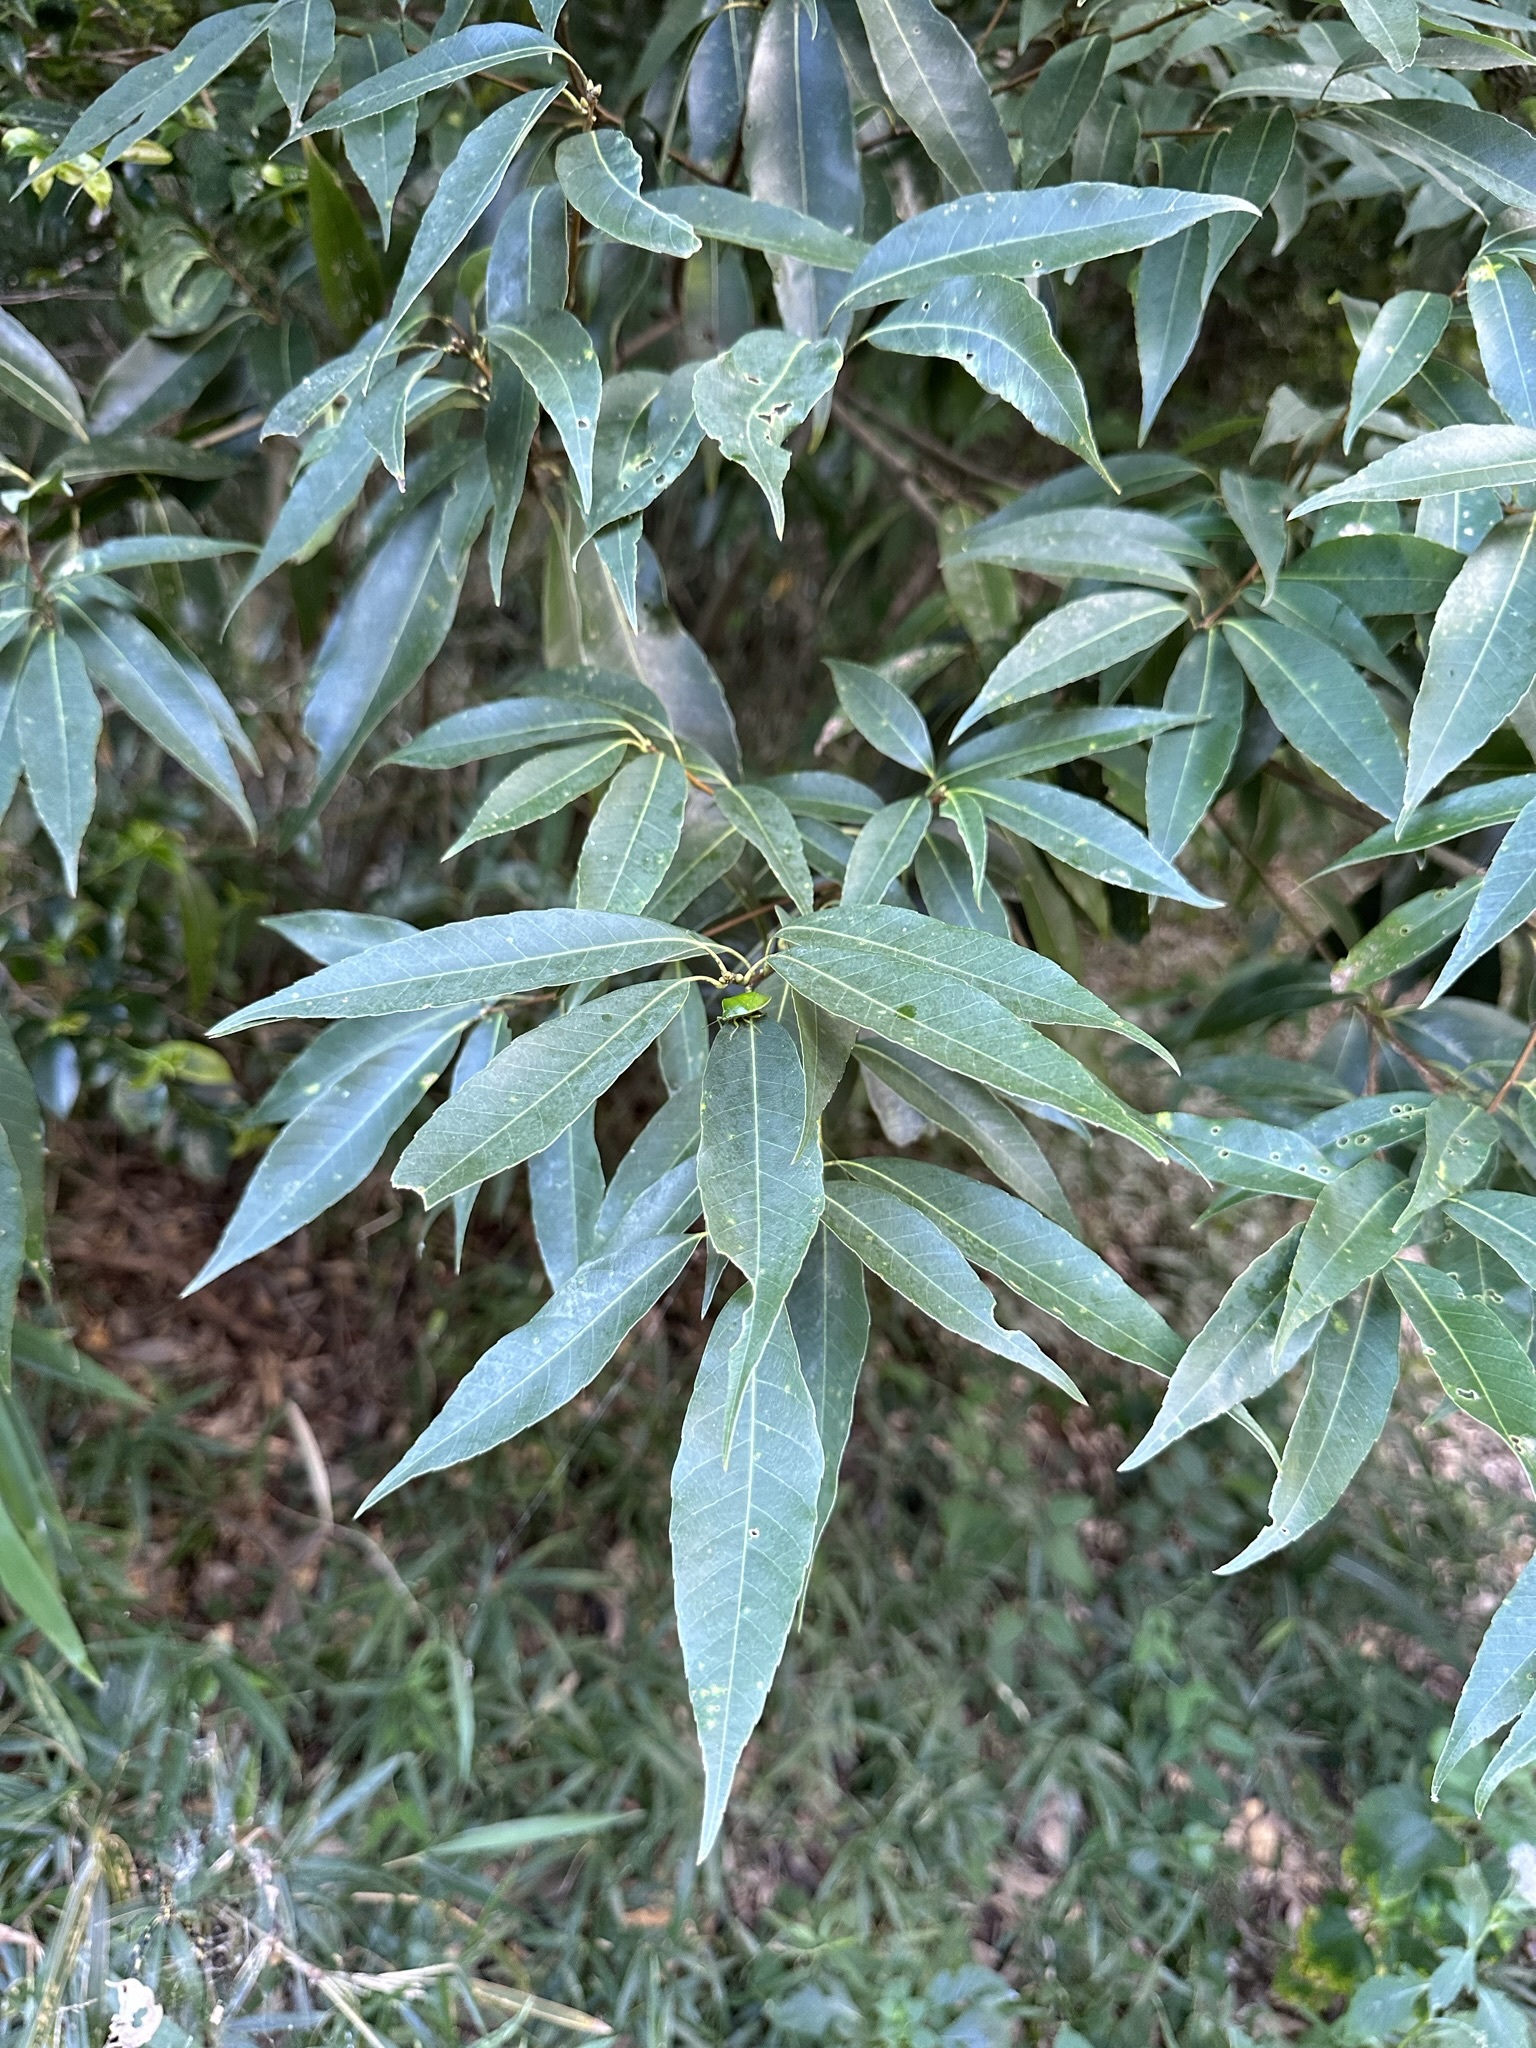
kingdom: Plantae
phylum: Tracheophyta
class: Magnoliopsida
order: Fagales
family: Fagaceae
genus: Quercus
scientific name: Quercus myrsinifolia
